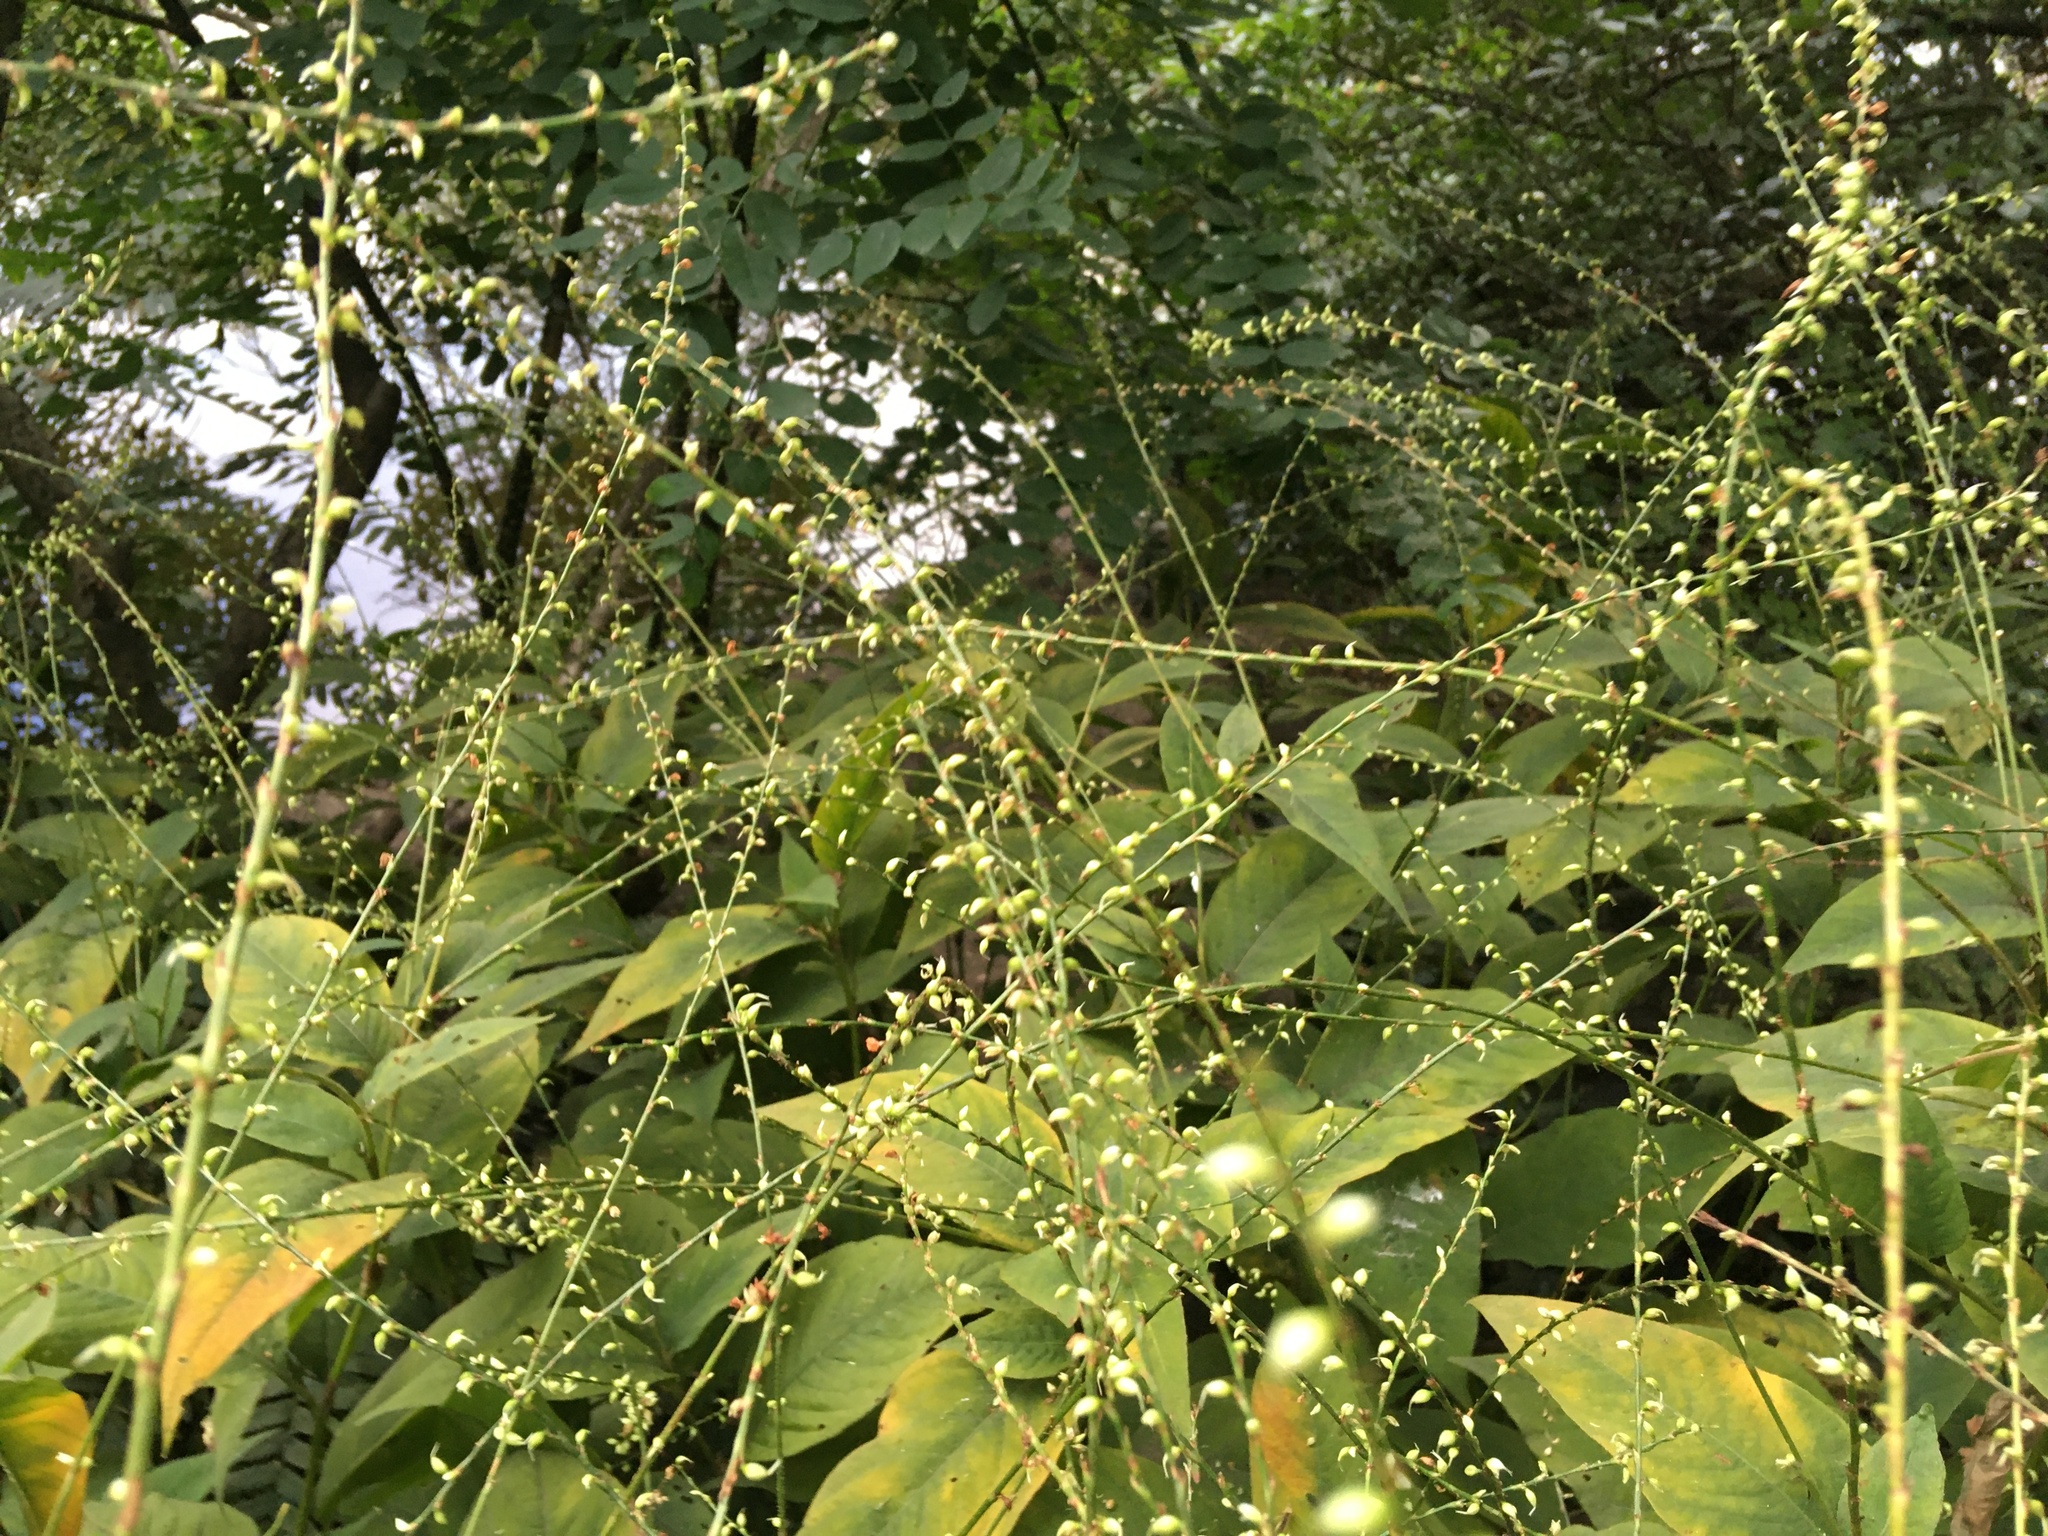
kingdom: Plantae
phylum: Tracheophyta
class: Magnoliopsida
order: Caryophyllales
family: Polygonaceae
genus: Persicaria
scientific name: Persicaria virginiana
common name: Jumpseed
